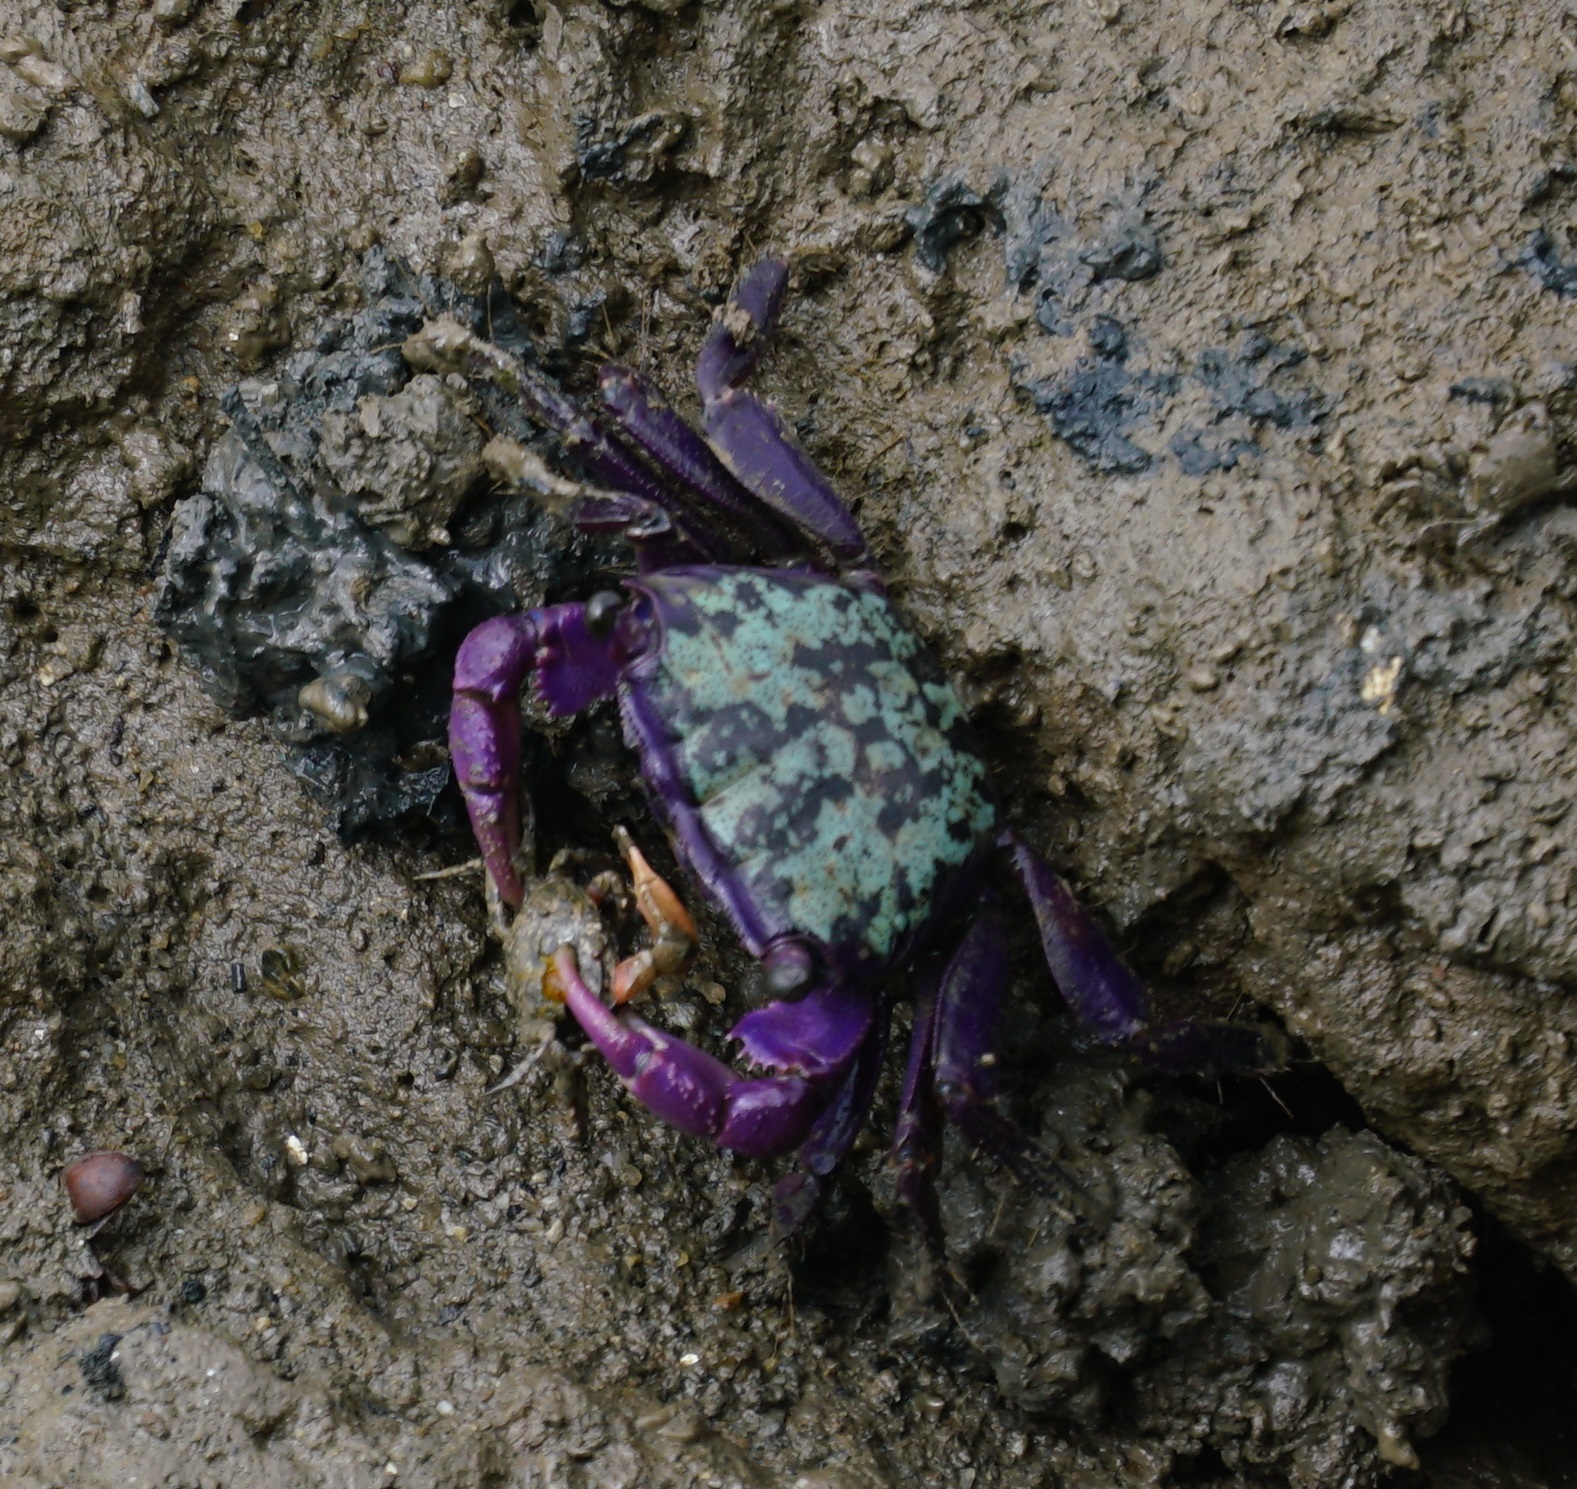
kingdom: Animalia
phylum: Arthropoda
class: Malacostraca
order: Decapoda
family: Grapsidae
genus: Metopograpsus
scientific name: Metopograpsus frontalis
